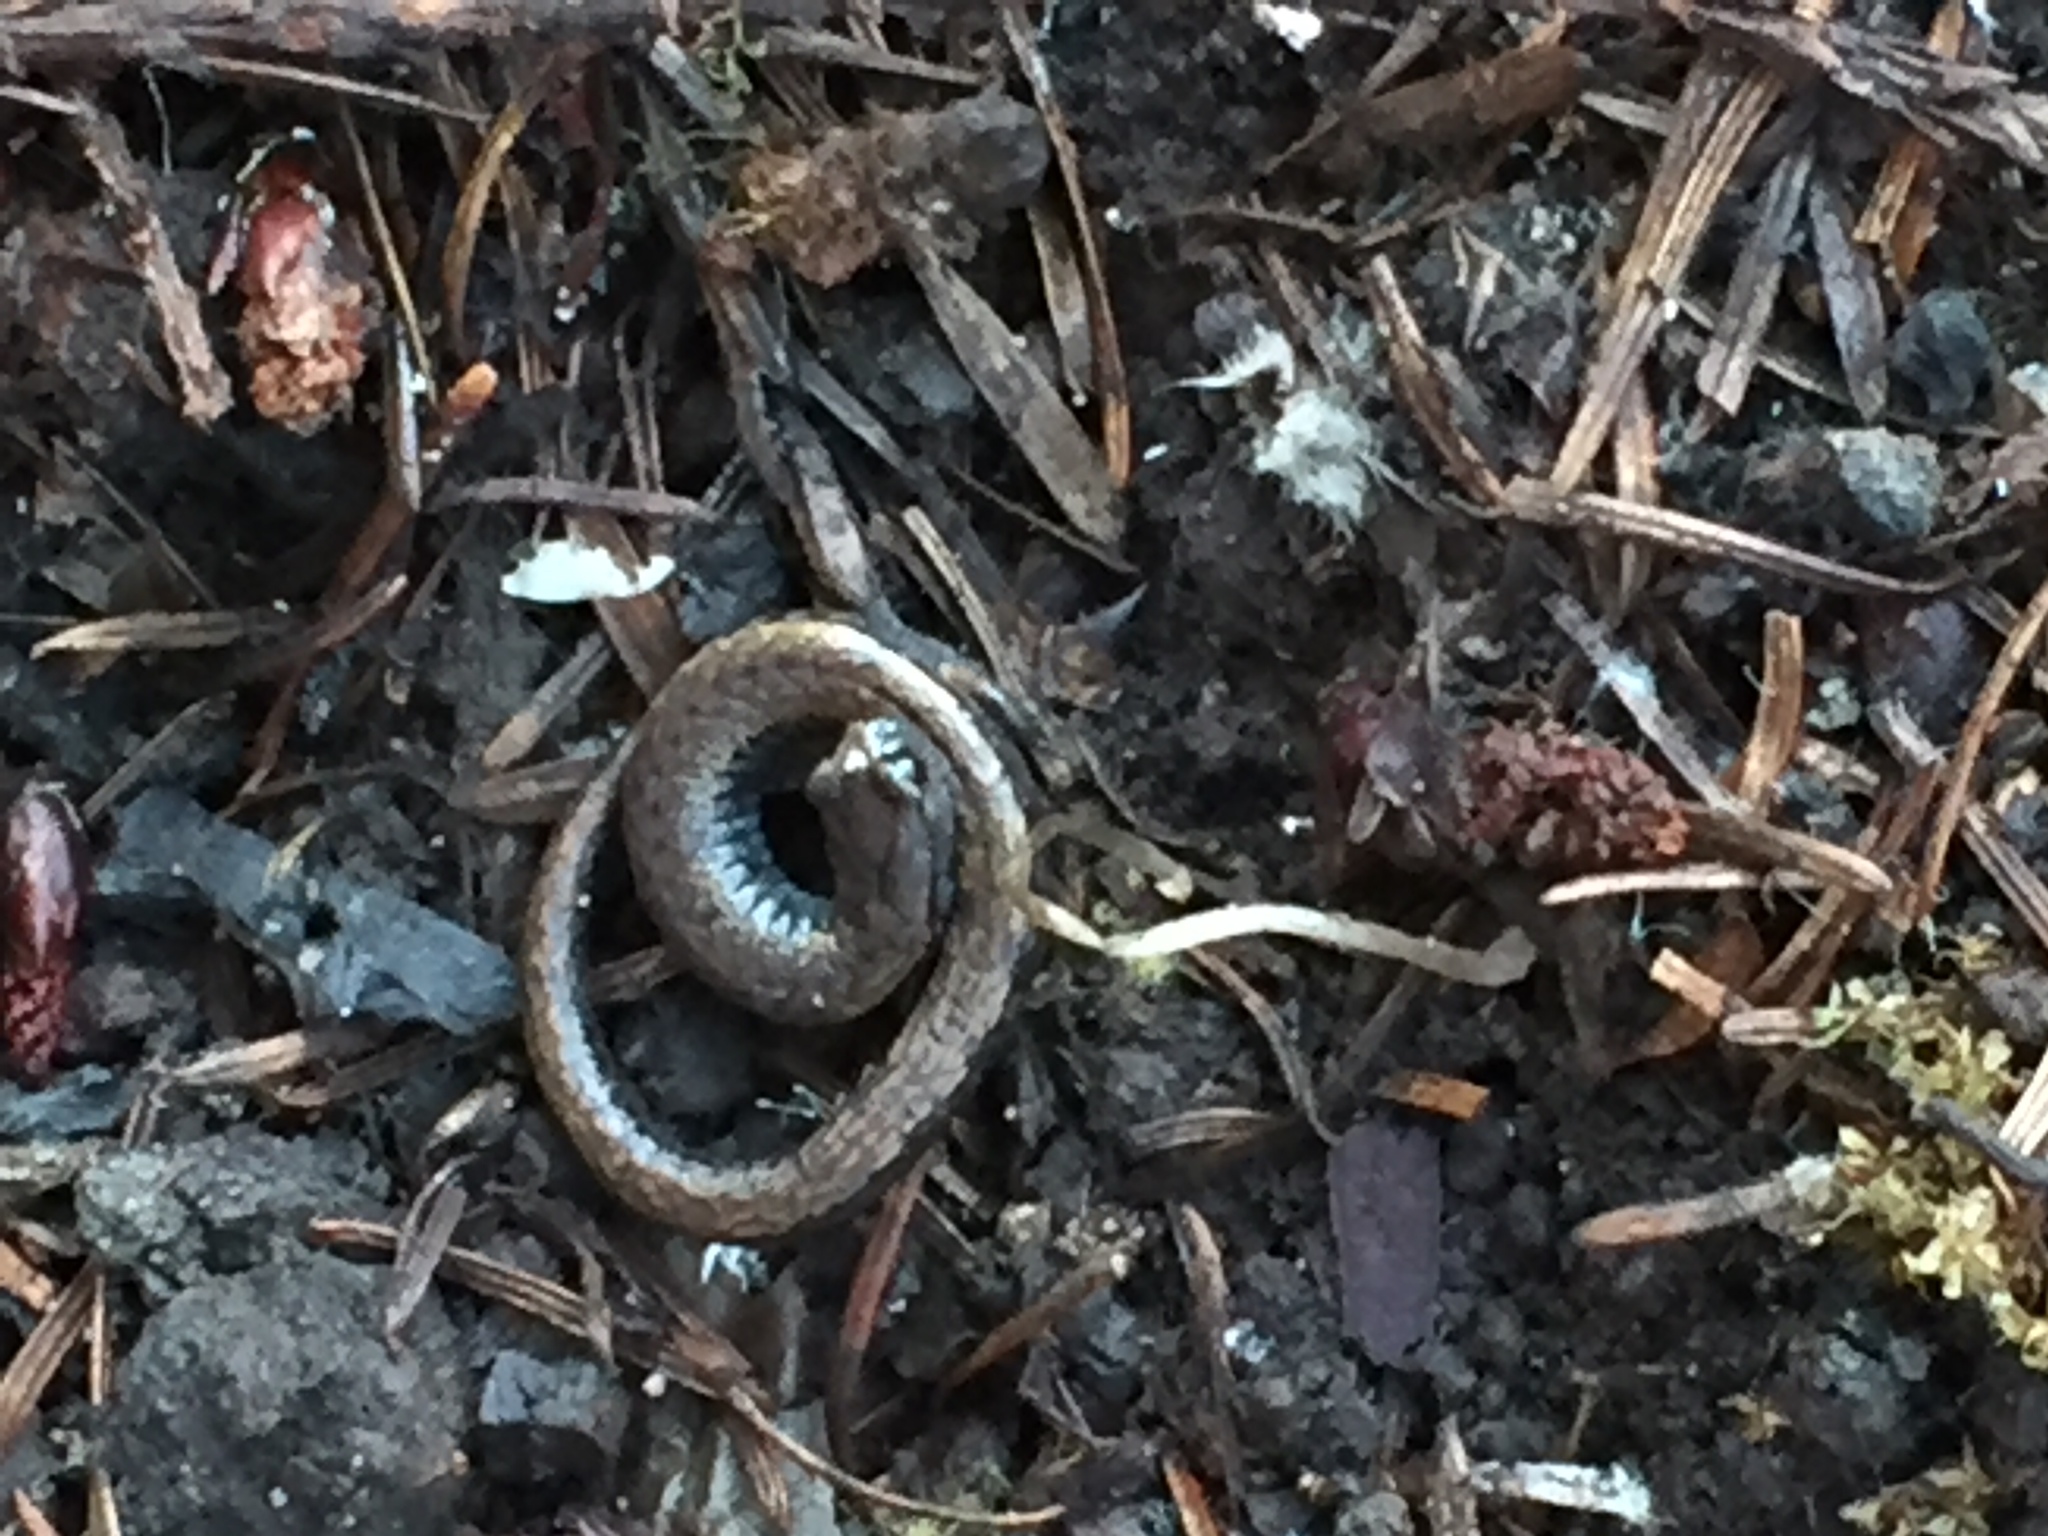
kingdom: Animalia
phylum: Chordata
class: Amphibia
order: Caudata
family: Plethodontidae
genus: Batrachoseps
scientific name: Batrachoseps attenuatus
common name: California slender salamander
